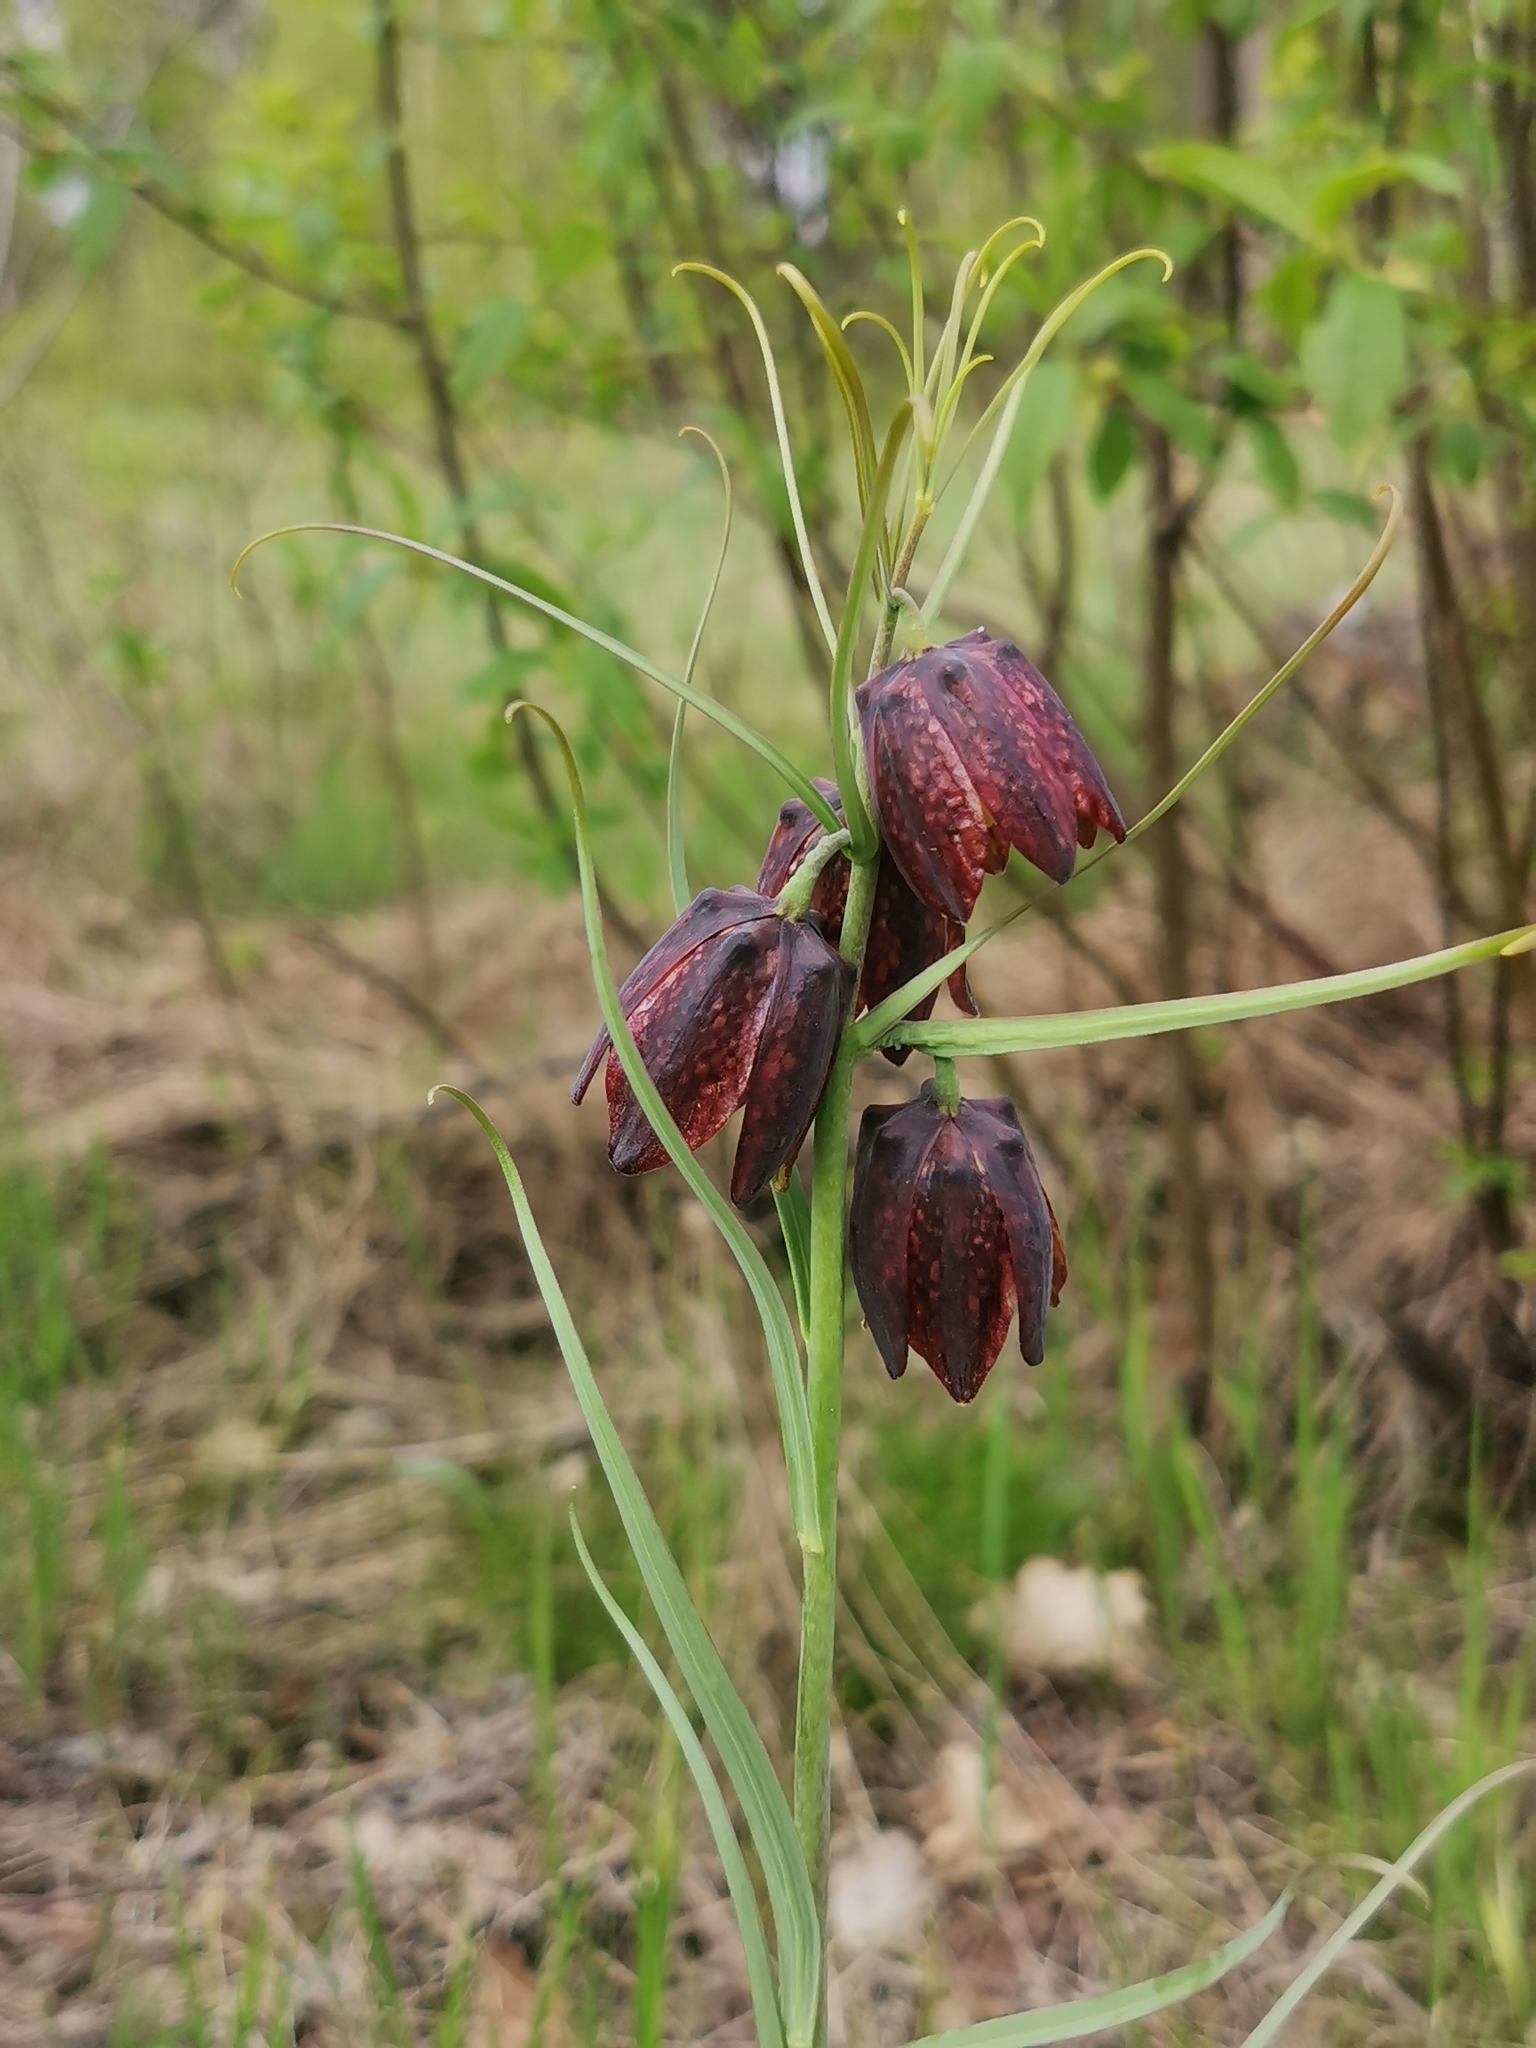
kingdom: Plantae
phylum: Tracheophyta
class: Liliopsida
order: Liliales
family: Liliaceae
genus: Fritillaria
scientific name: Fritillaria ruthenica
